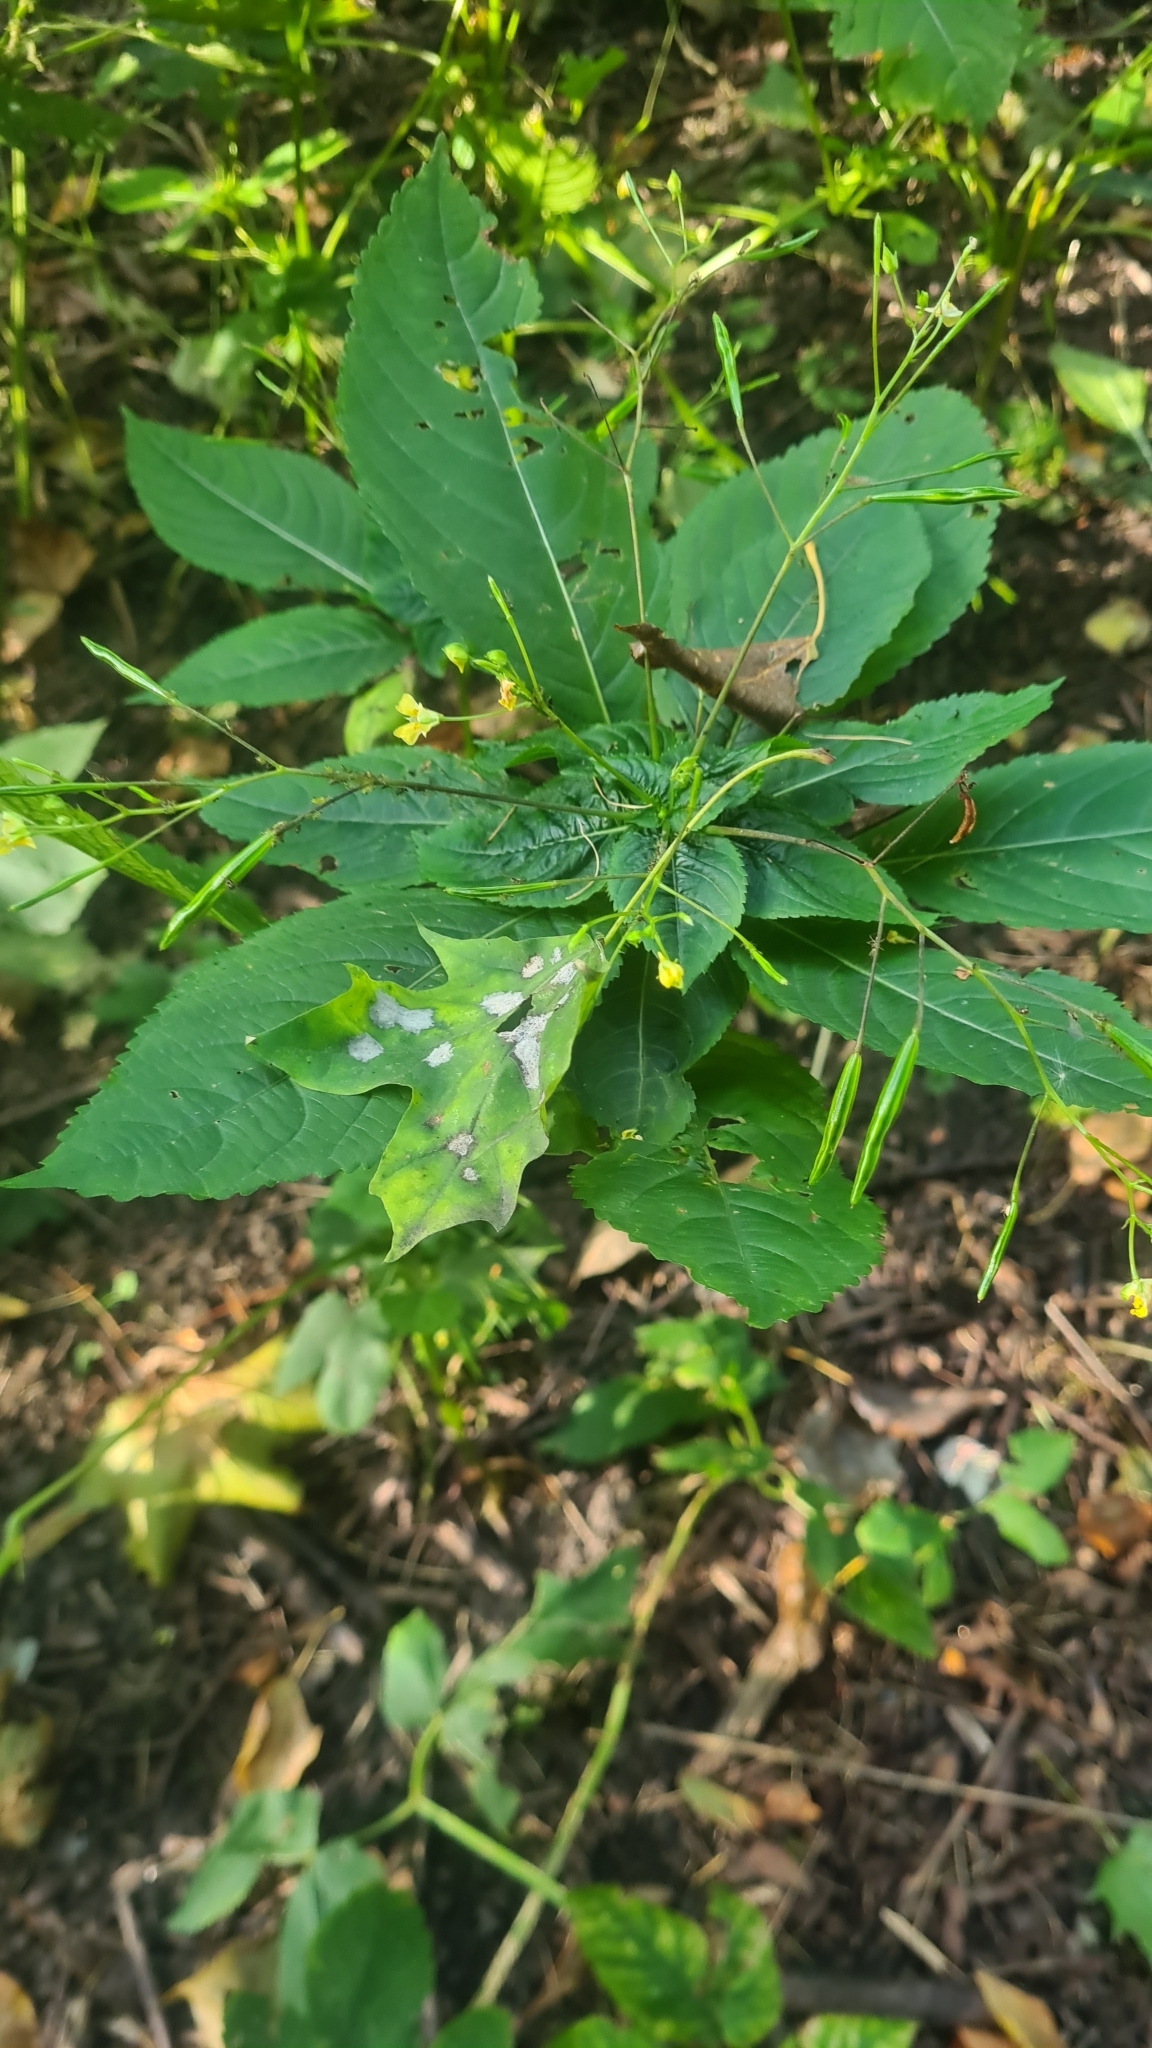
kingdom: Plantae
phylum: Tracheophyta
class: Magnoliopsida
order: Ericales
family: Balsaminaceae
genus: Impatiens
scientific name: Impatiens parviflora
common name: Small balsam
